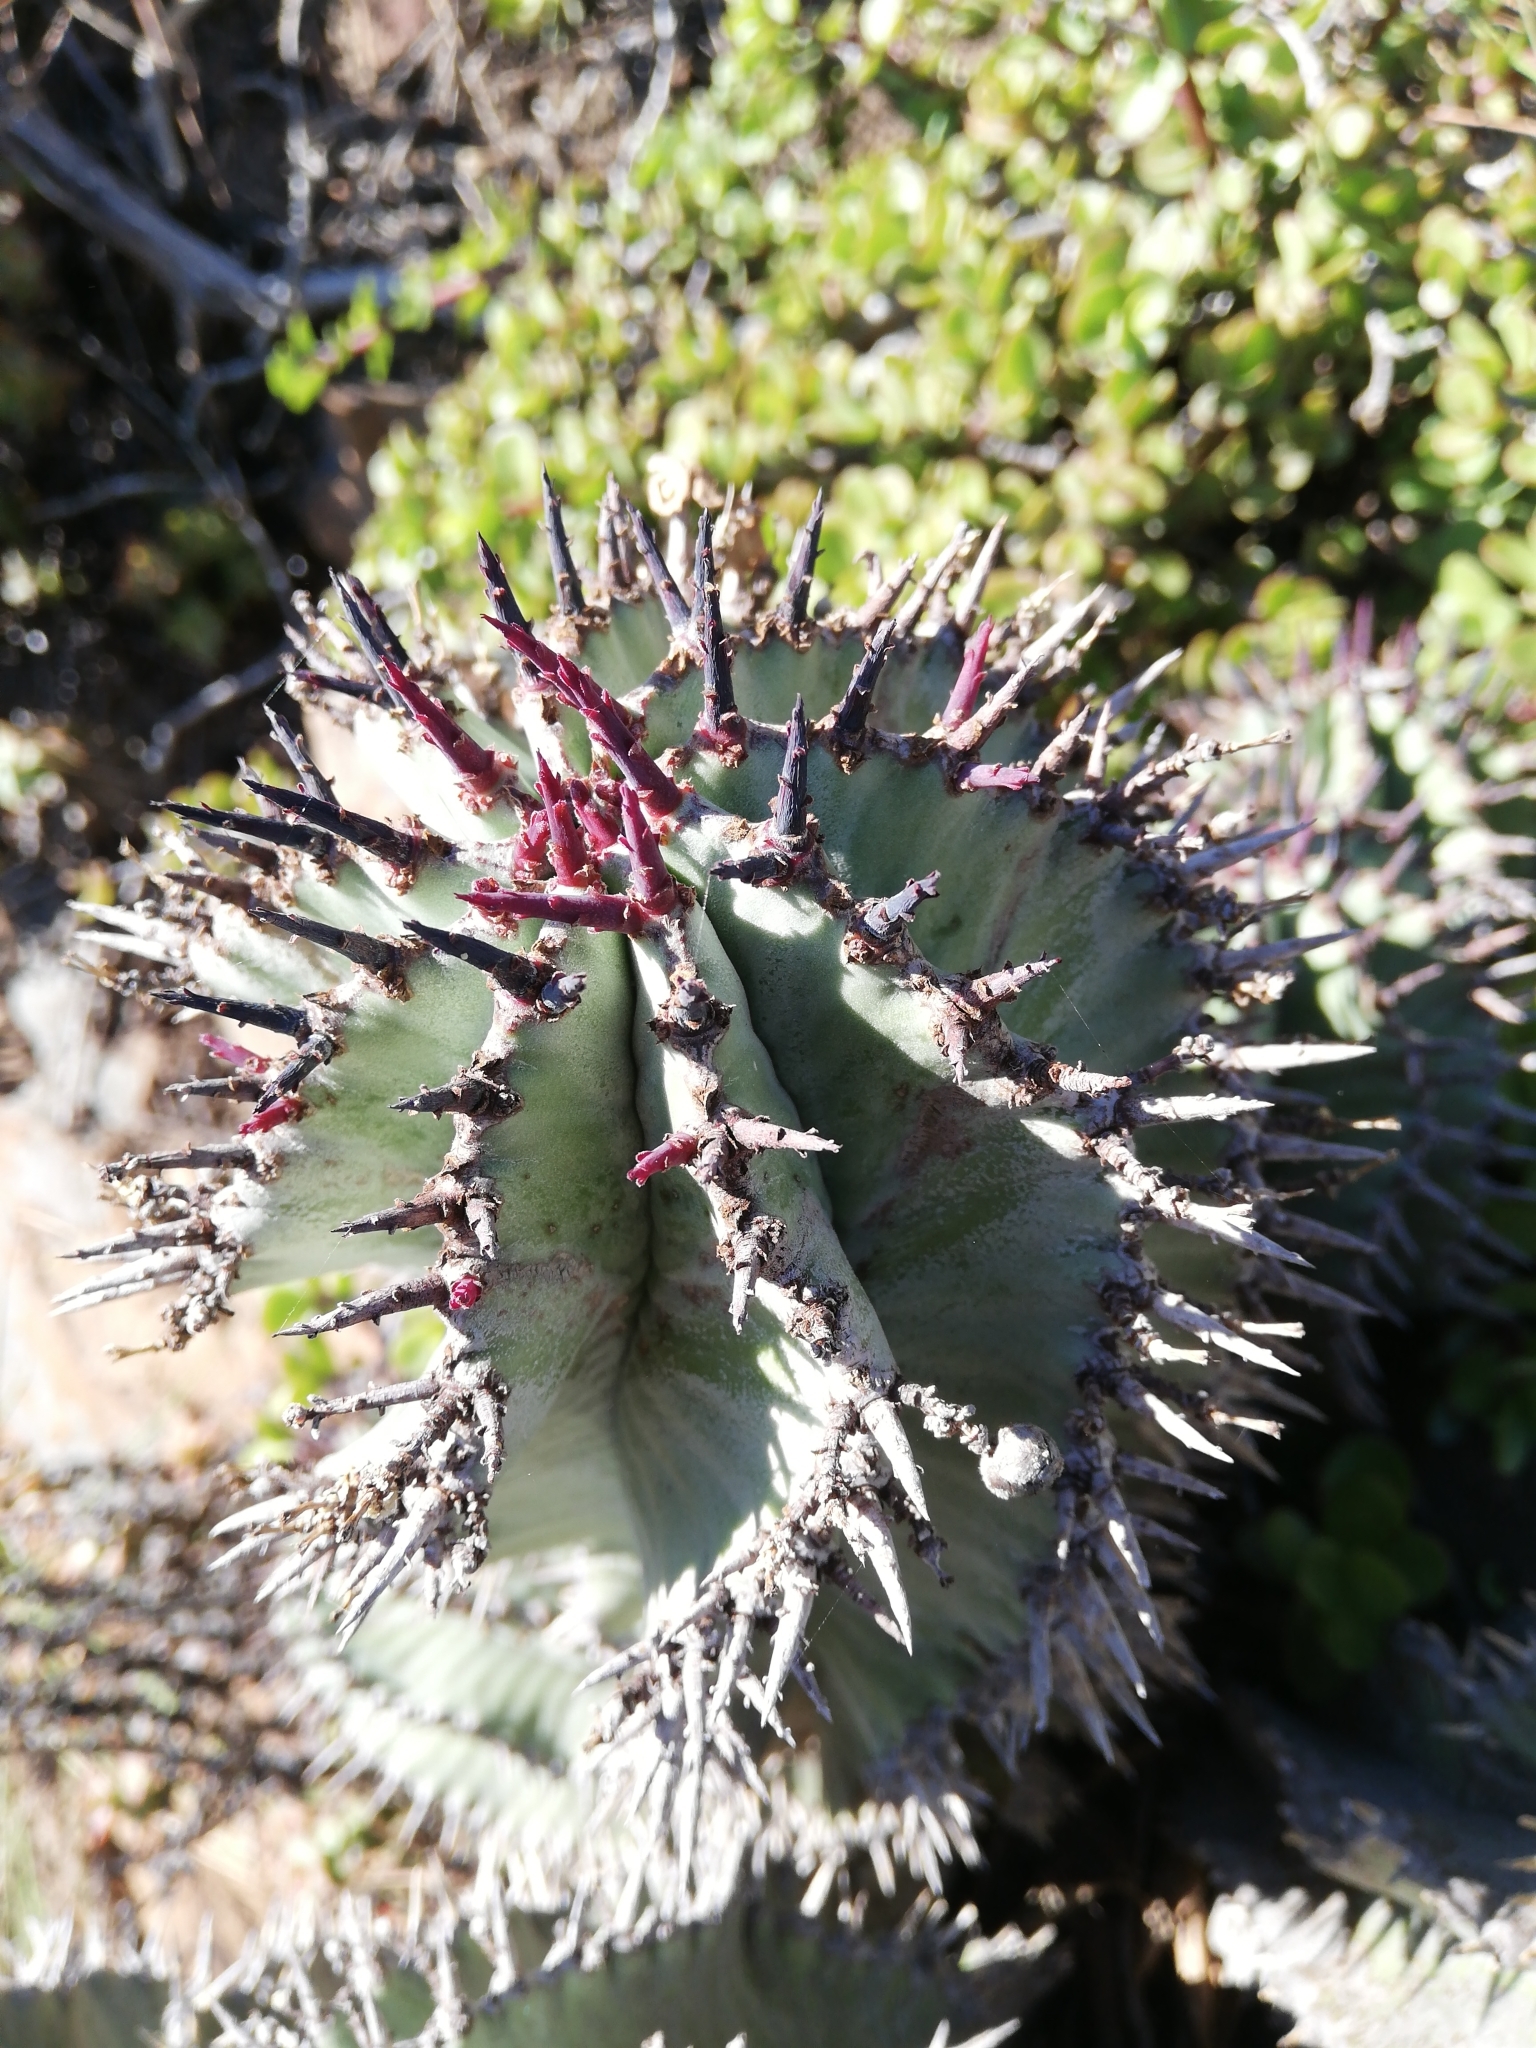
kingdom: Plantae
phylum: Tracheophyta
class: Magnoliopsida
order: Malpighiales
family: Euphorbiaceae
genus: Euphorbia
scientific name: Euphorbia polygona
